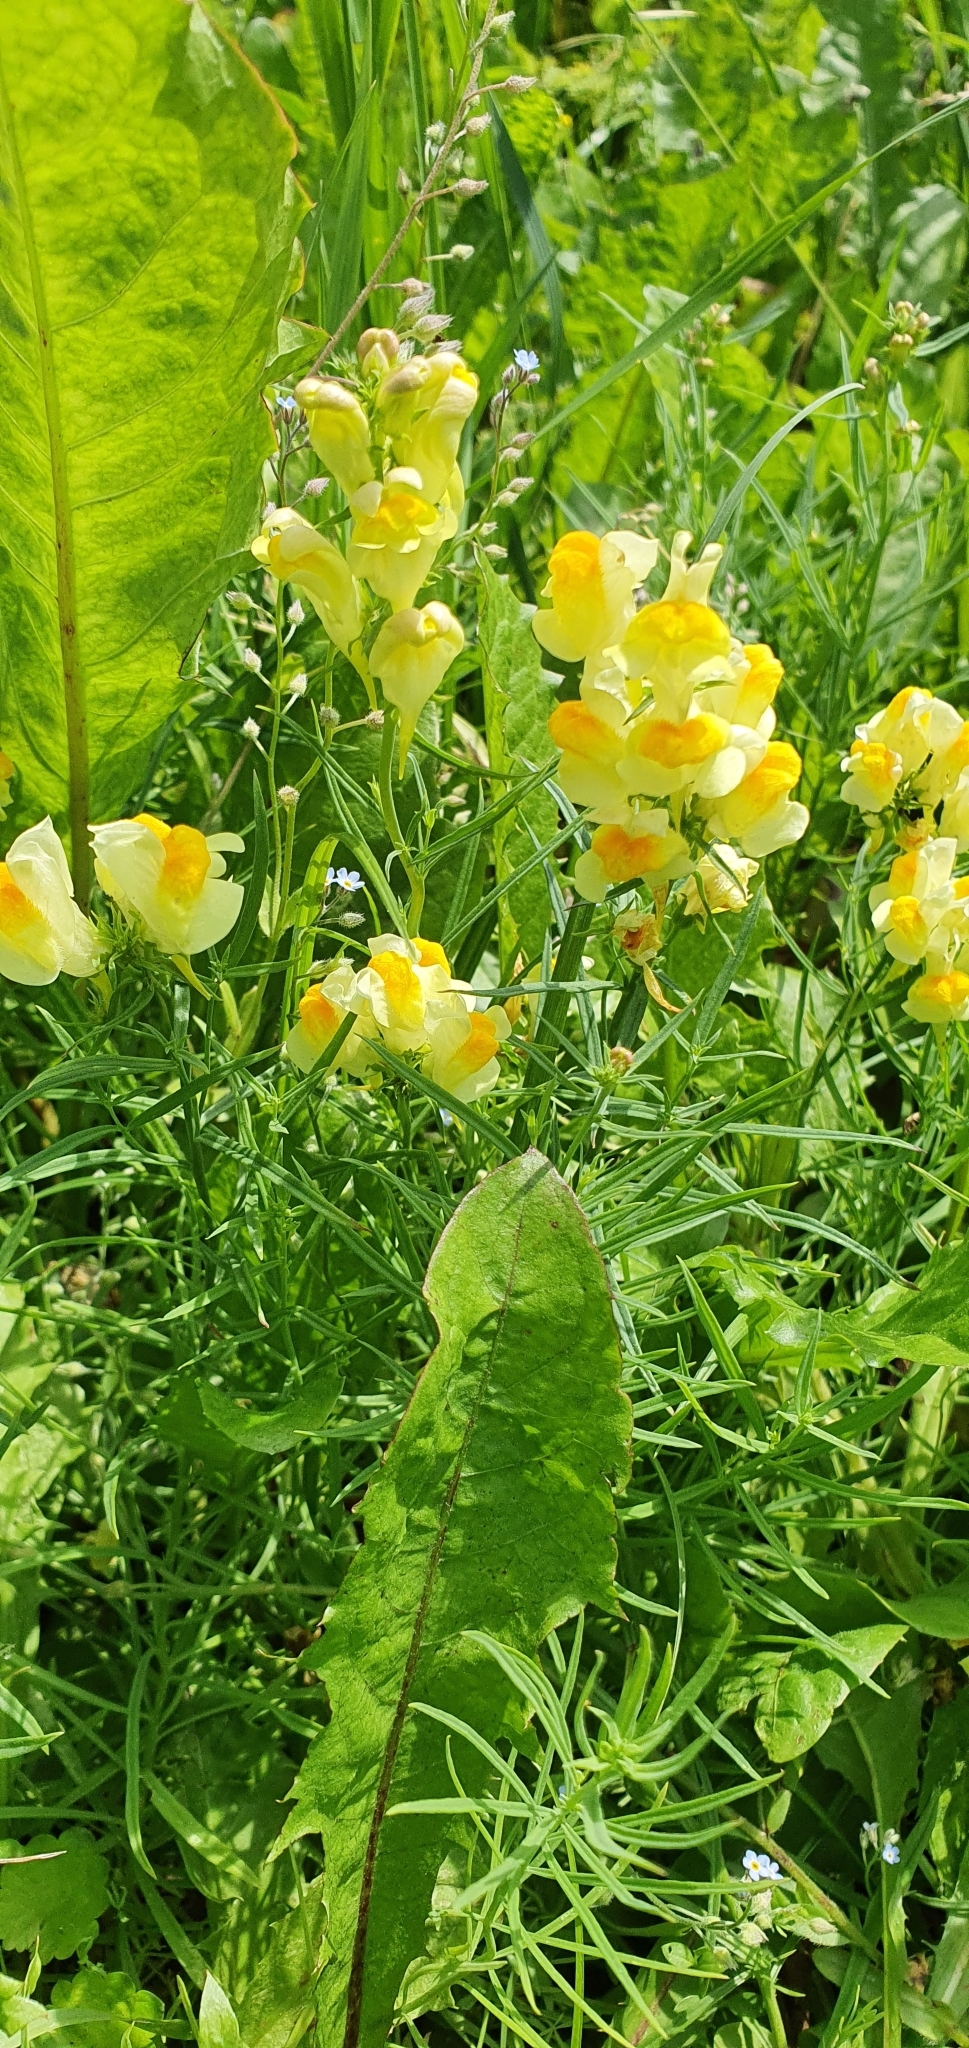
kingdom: Plantae
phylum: Tracheophyta
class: Magnoliopsida
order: Lamiales
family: Plantaginaceae
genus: Linaria
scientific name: Linaria vulgaris
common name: Butter and eggs
